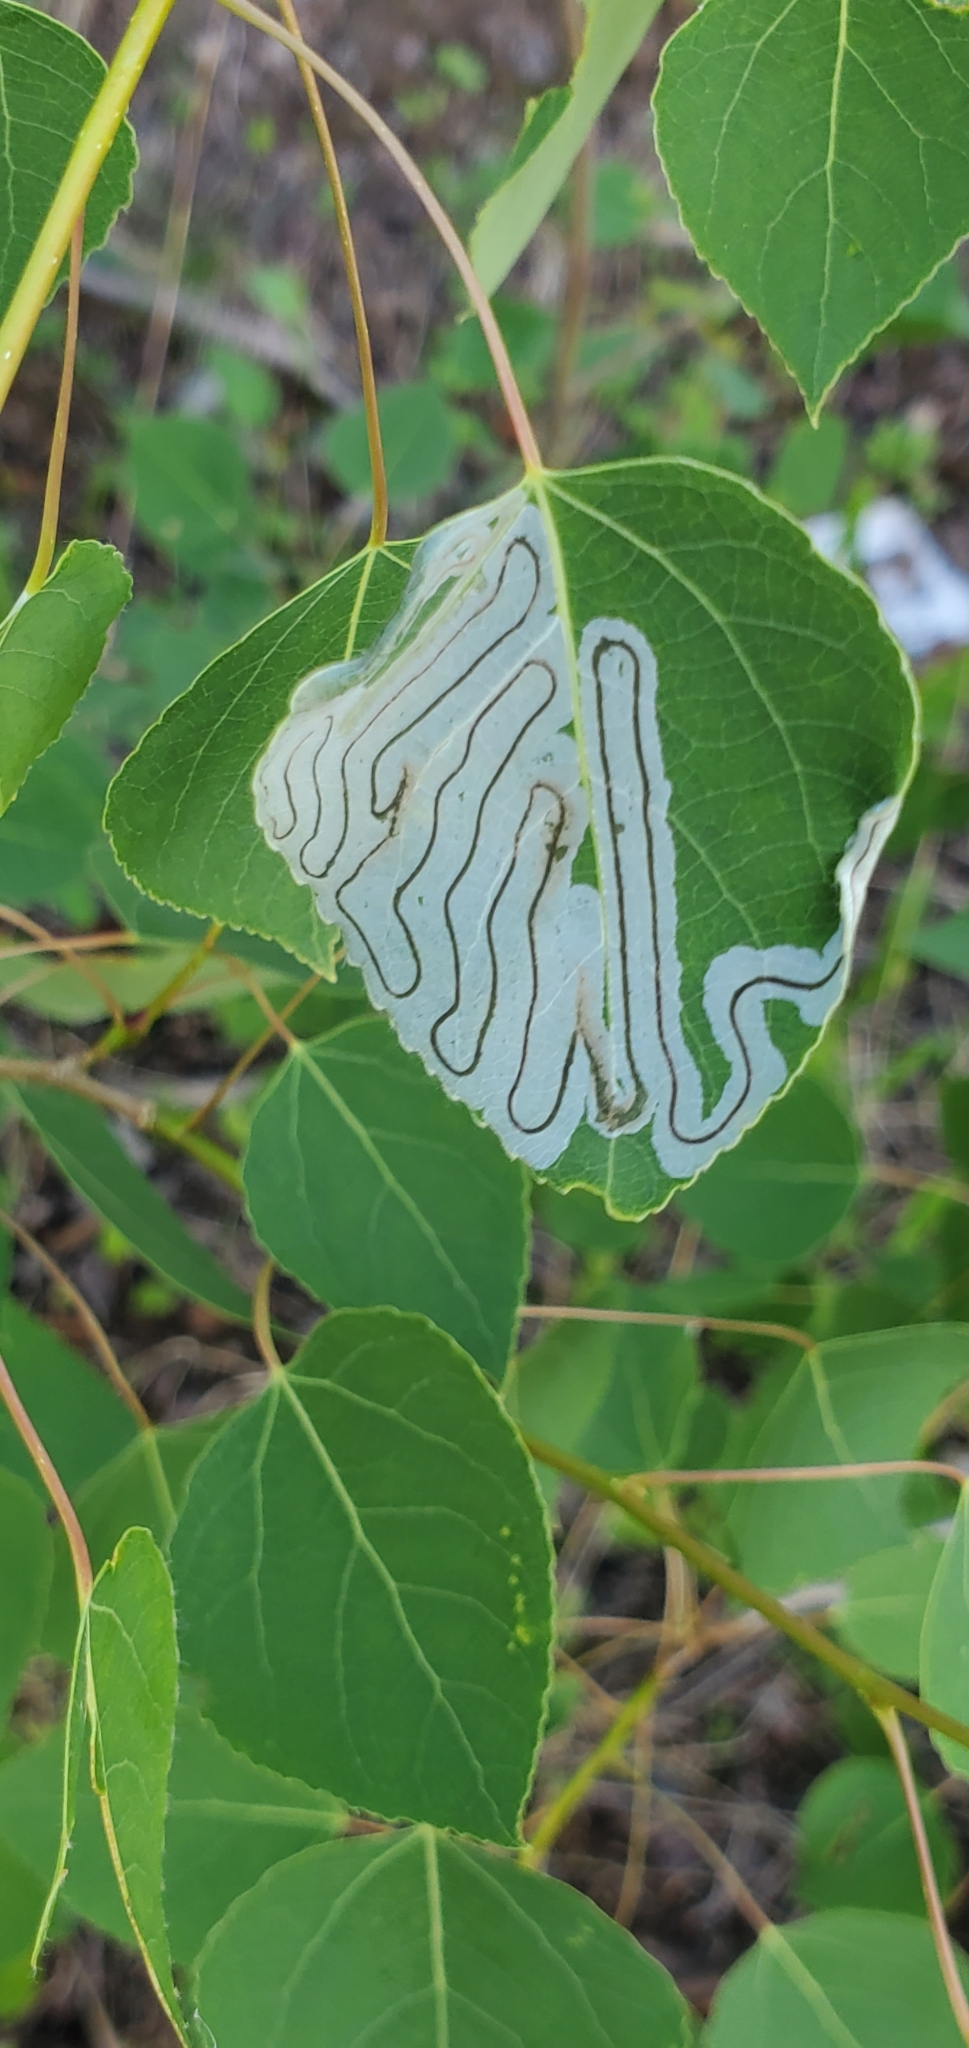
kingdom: Animalia
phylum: Arthropoda
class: Insecta
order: Lepidoptera
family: Gracillariidae
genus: Phyllocnistis
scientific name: Phyllocnistis populiella
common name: Aspen serpentine leafminer moth
